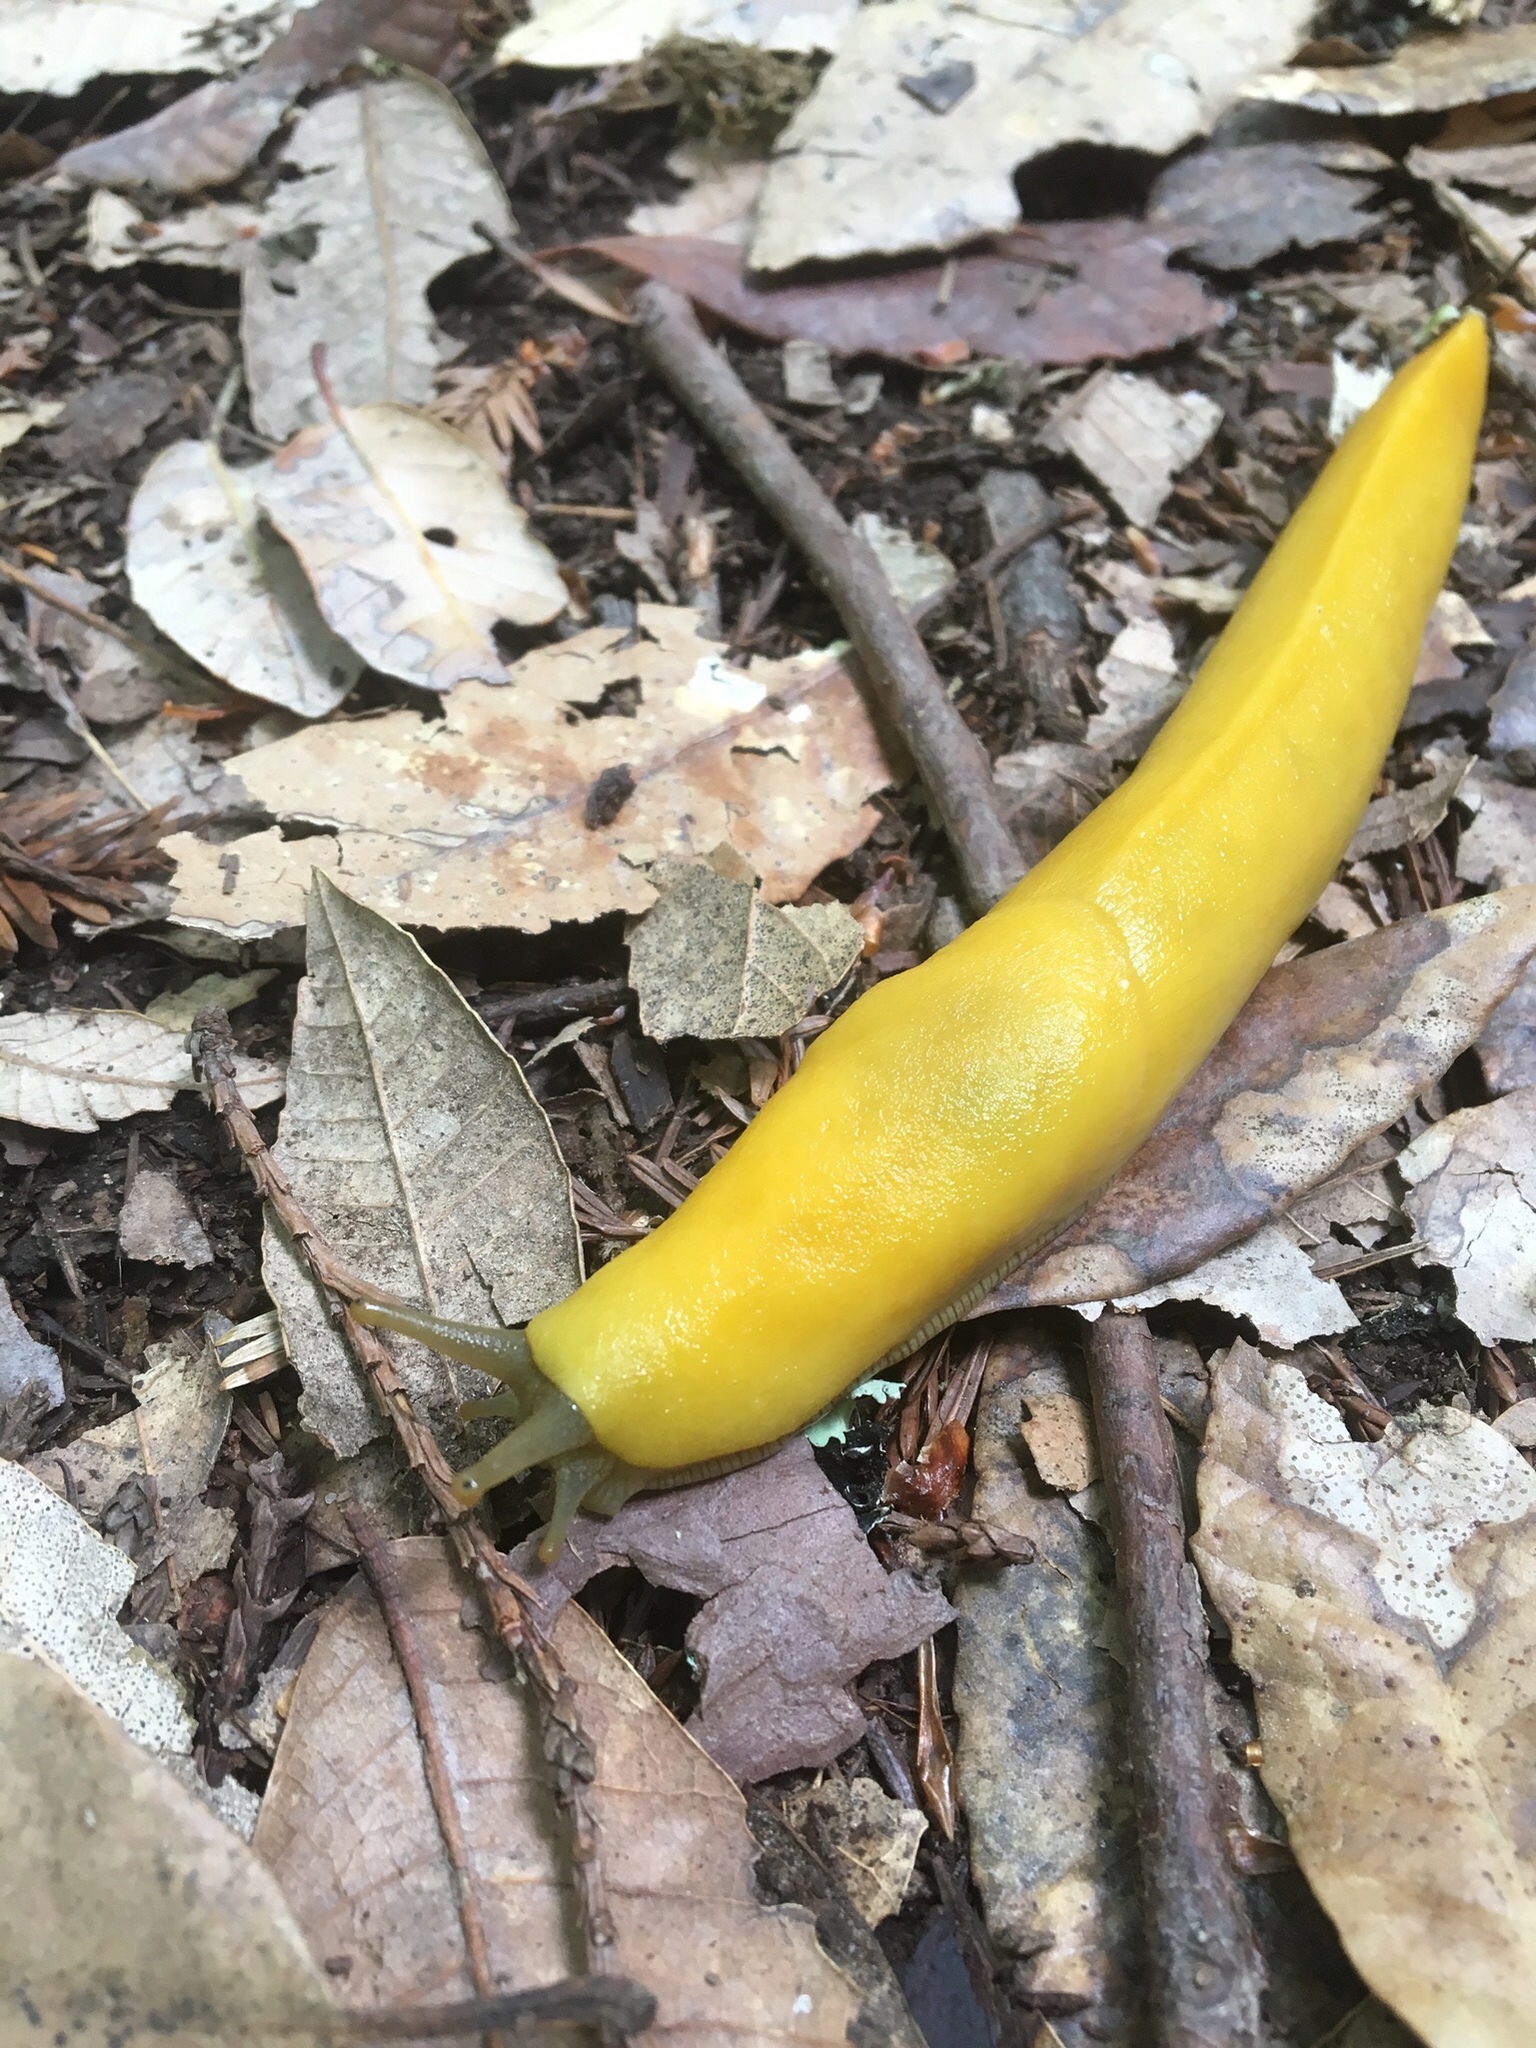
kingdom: Animalia
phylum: Mollusca
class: Gastropoda
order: Stylommatophora
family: Ariolimacidae
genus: Ariolimax
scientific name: Ariolimax californicus
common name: California banana slug
